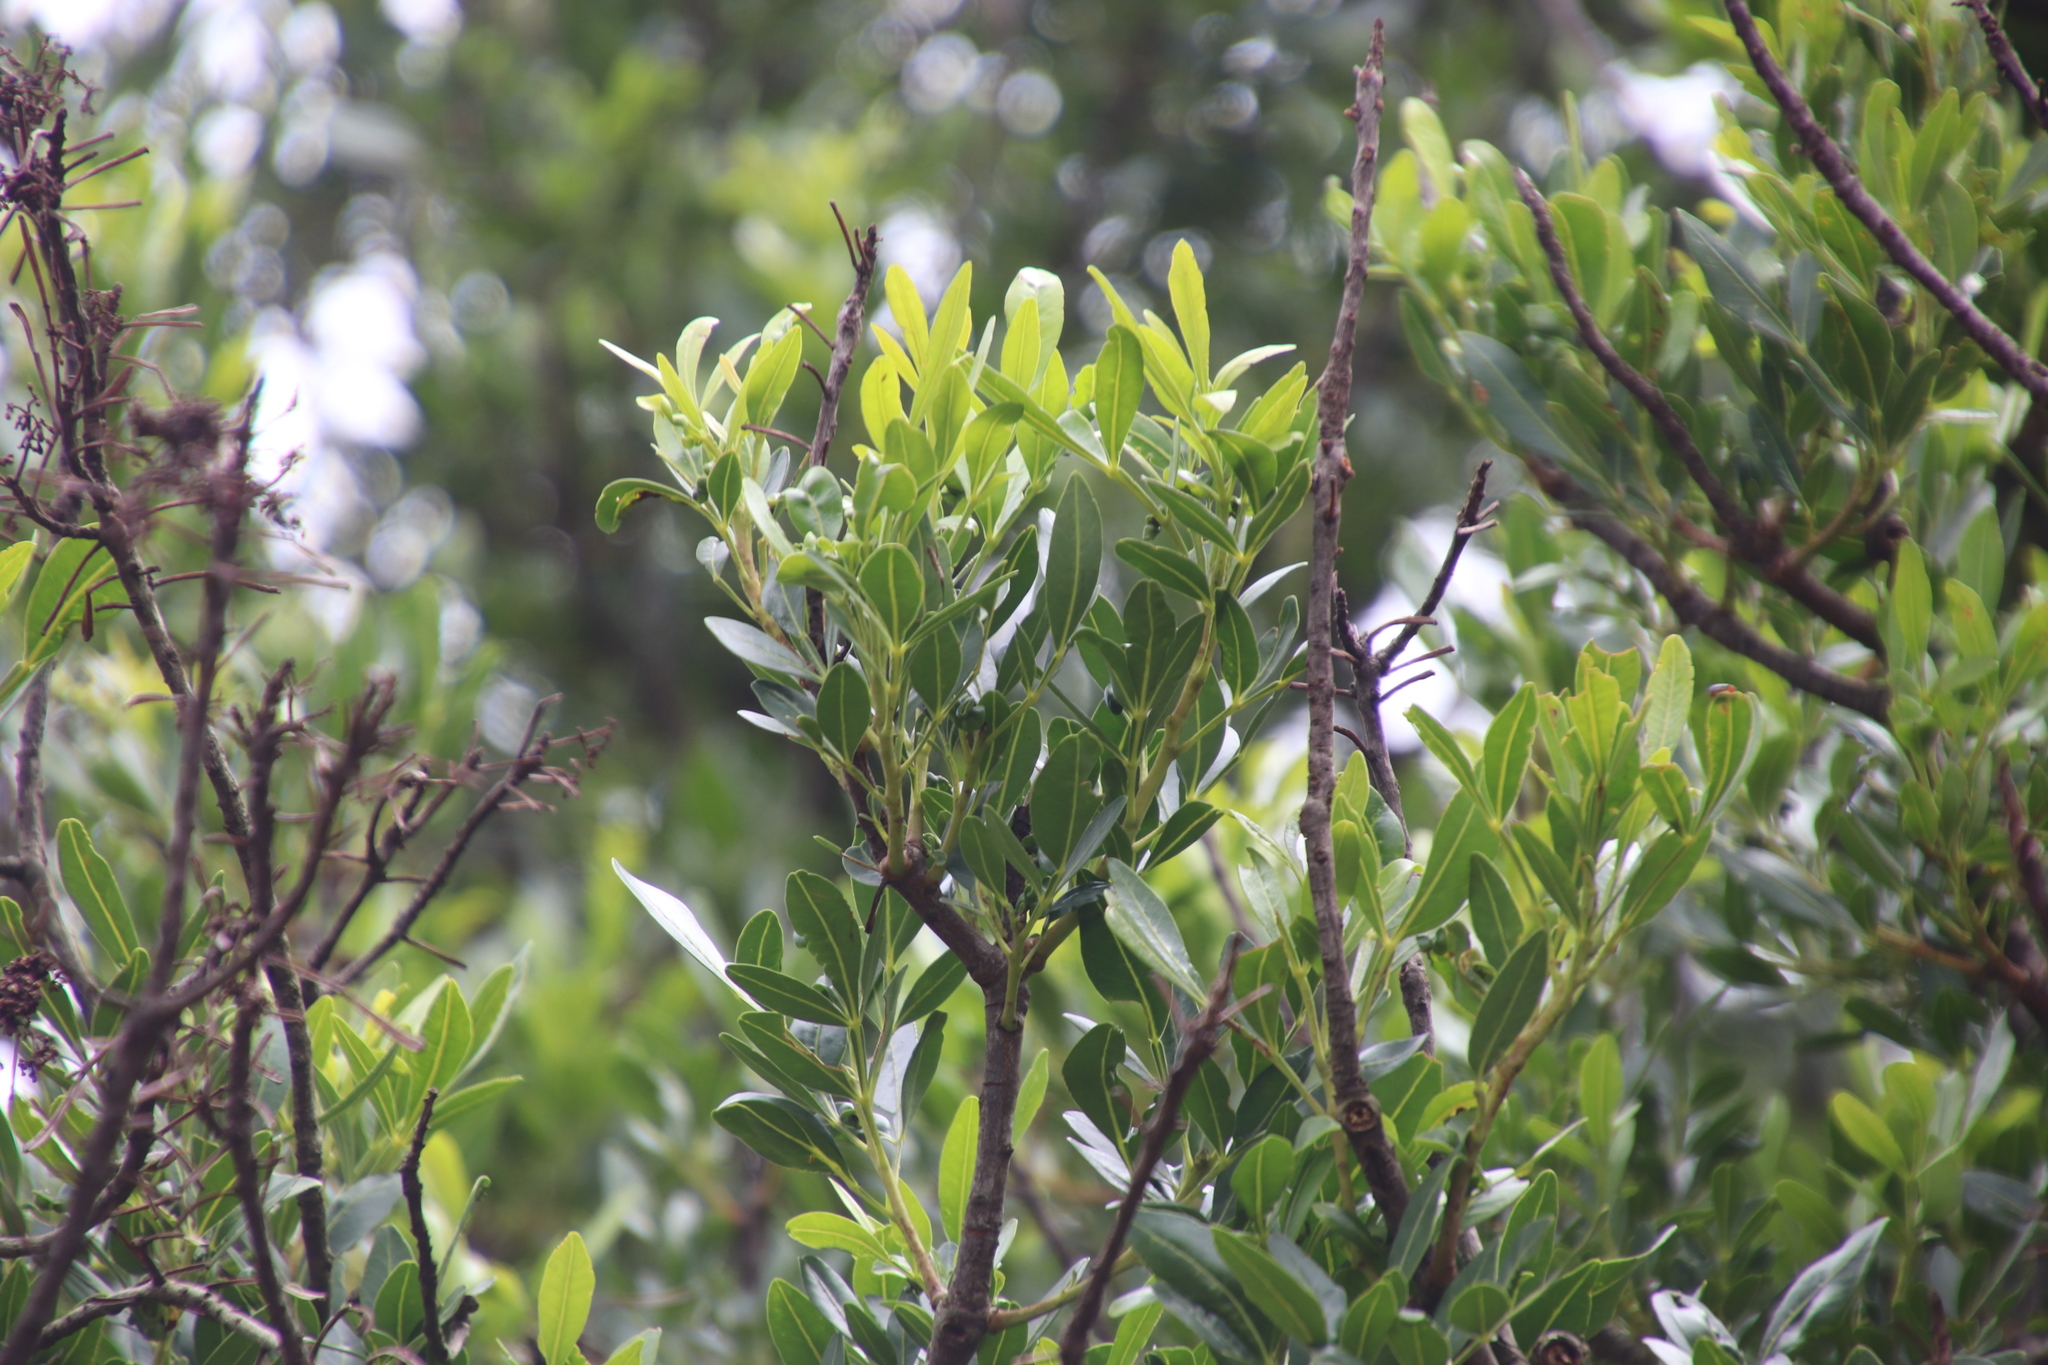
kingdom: Plantae
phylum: Tracheophyta
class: Magnoliopsida
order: Sapindales
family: Meliaceae
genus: Ekebergia
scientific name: Ekebergia pterophylla
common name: Cape ash
